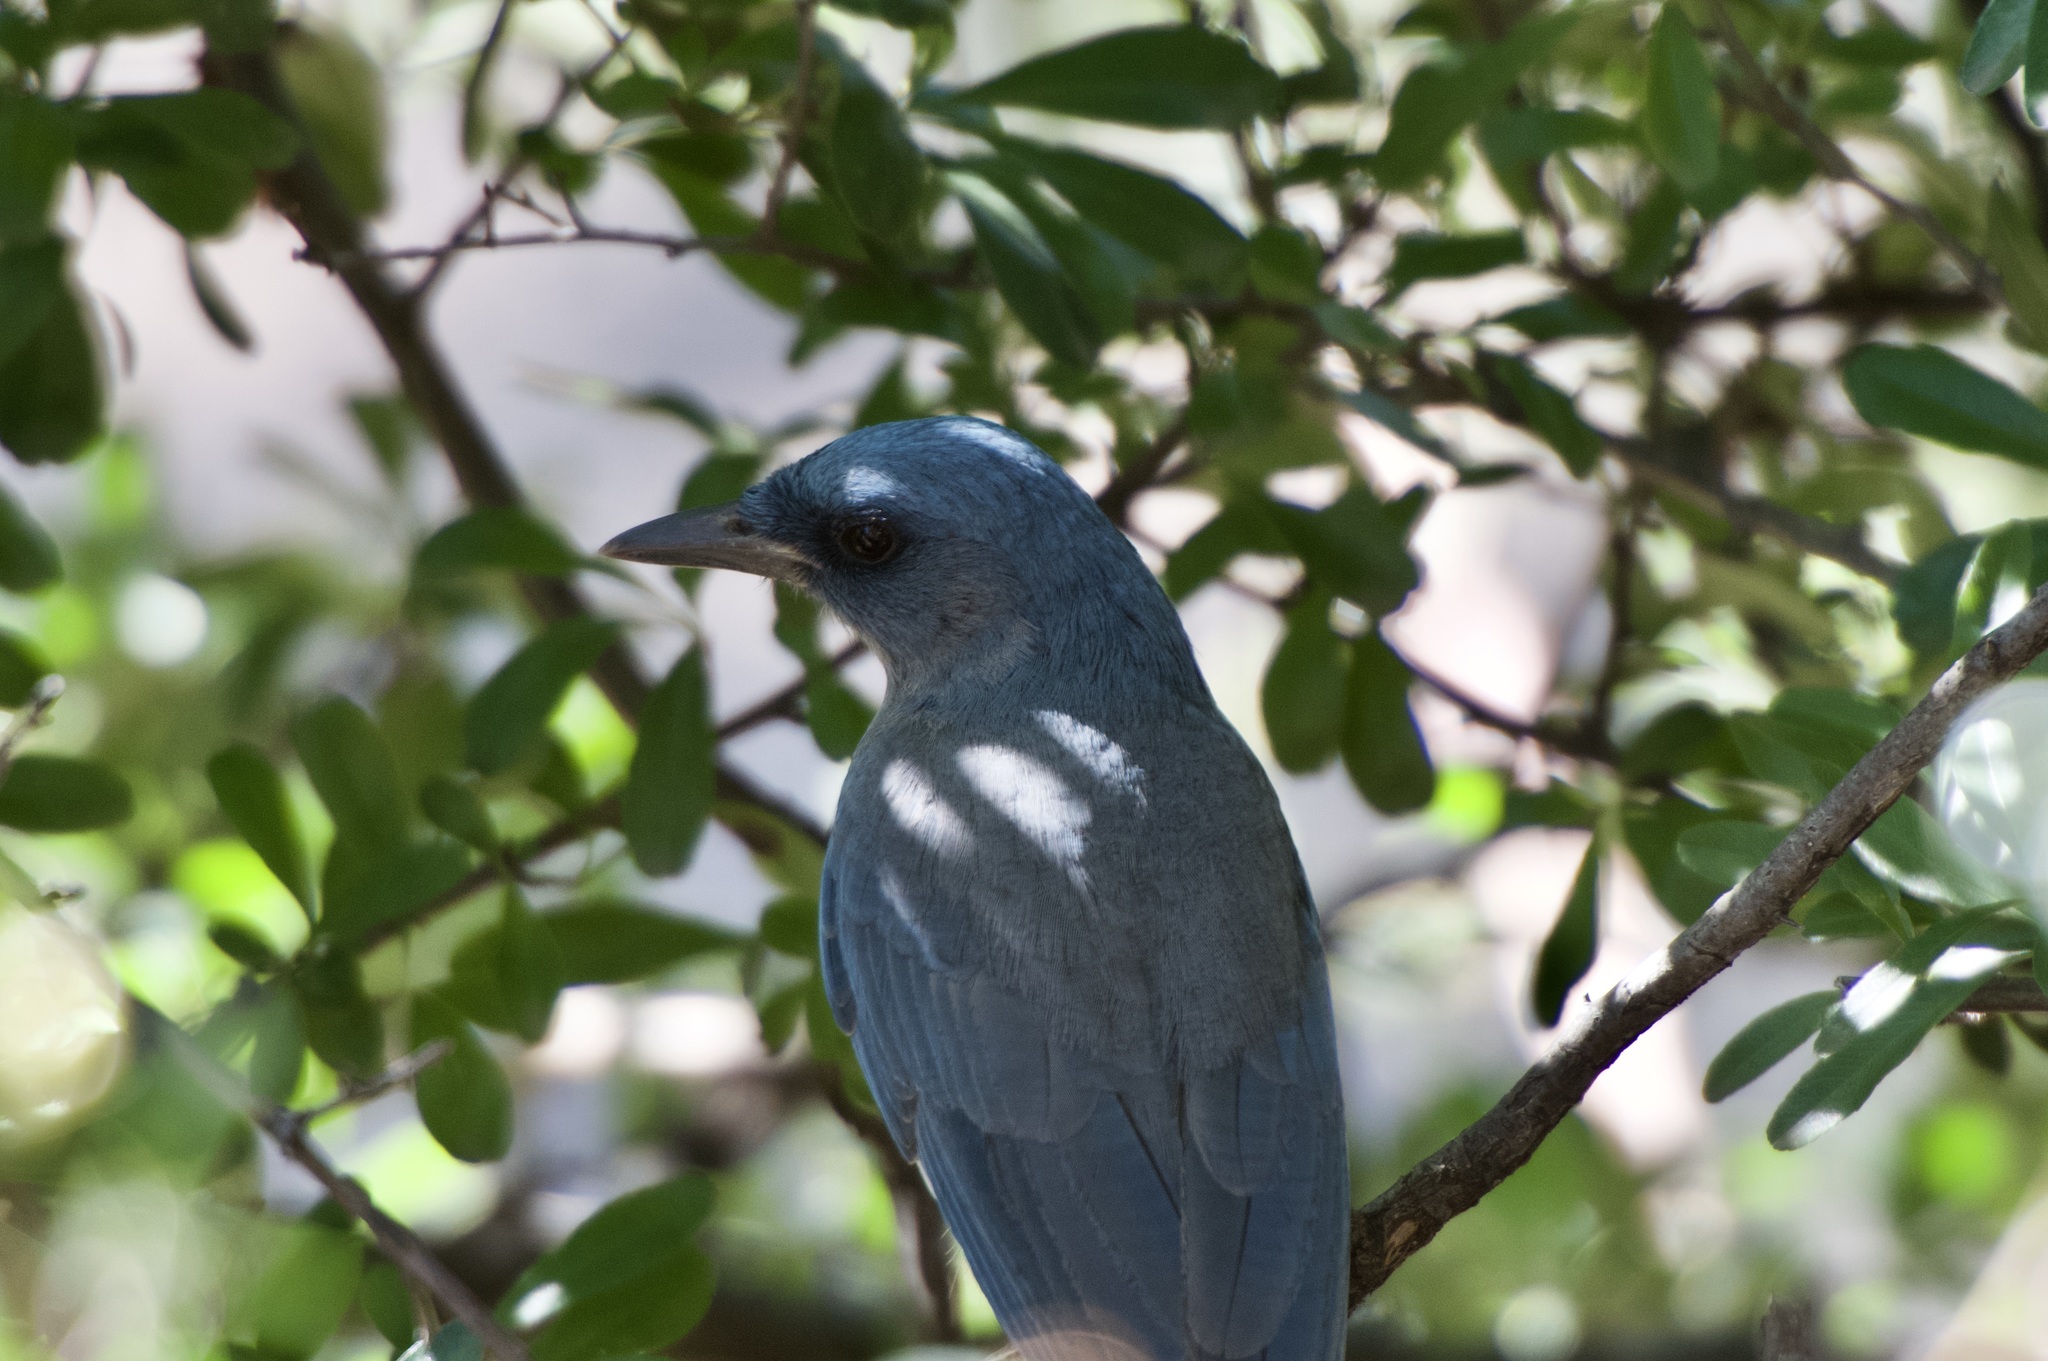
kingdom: Animalia
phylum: Chordata
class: Aves
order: Passeriformes
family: Corvidae
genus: Aphelocoma
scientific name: Aphelocoma wollweberi
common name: Mexican jay
